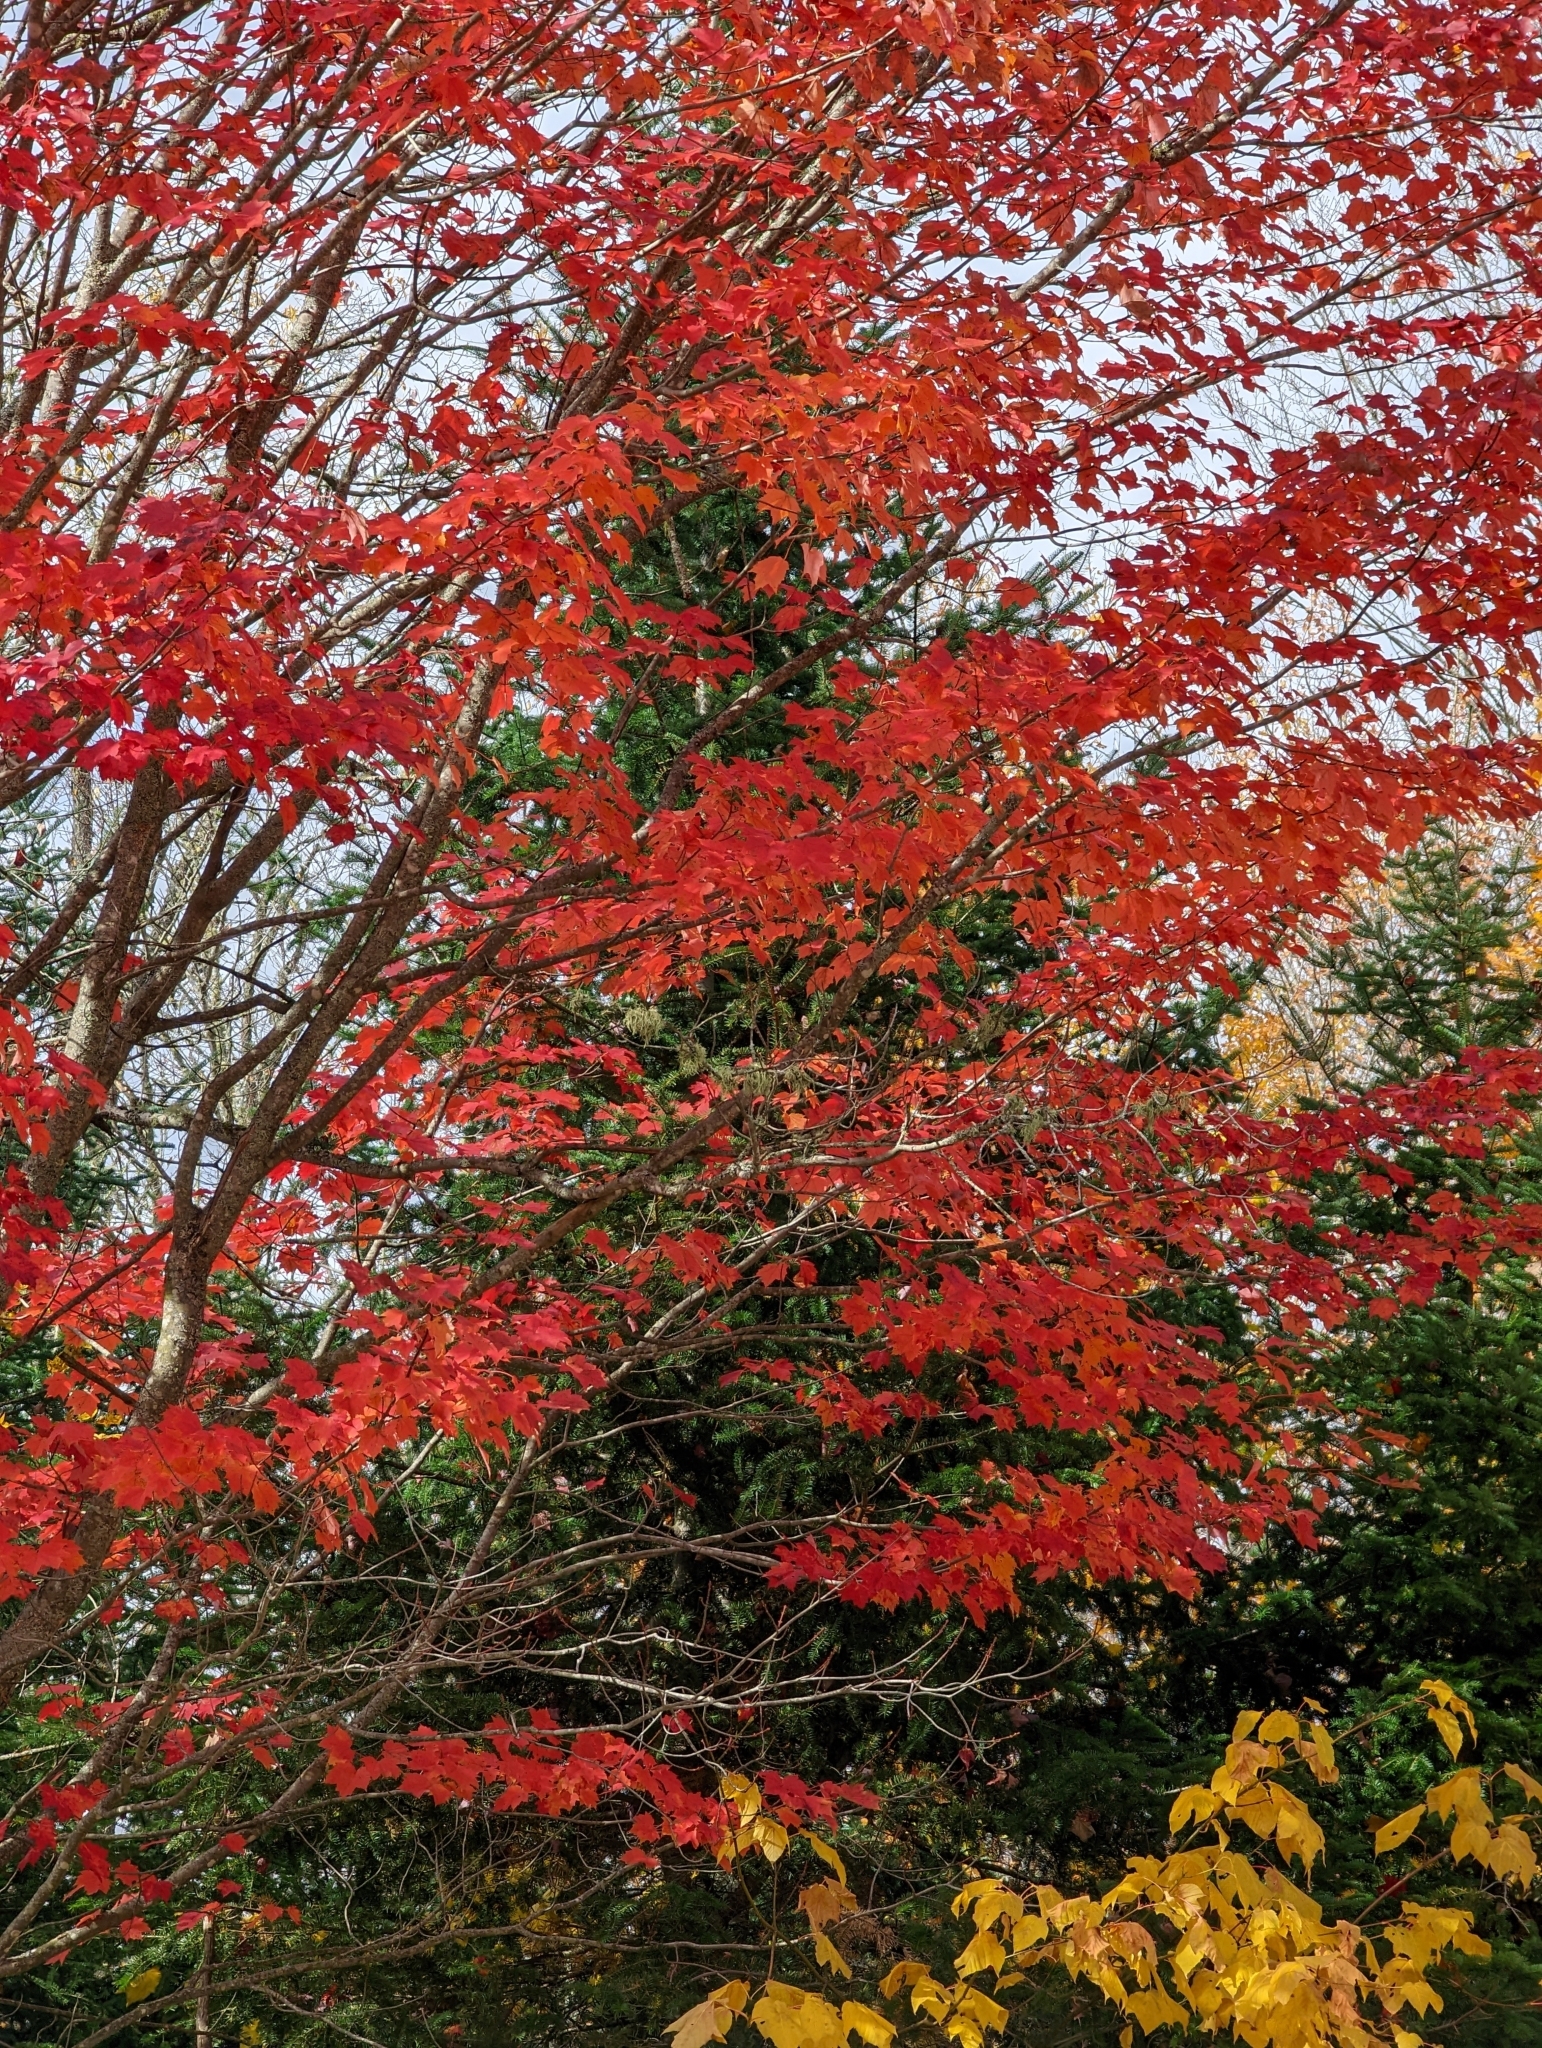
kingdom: Plantae
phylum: Tracheophyta
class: Magnoliopsida
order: Sapindales
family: Sapindaceae
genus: Acer
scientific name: Acer rubrum
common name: Red maple
